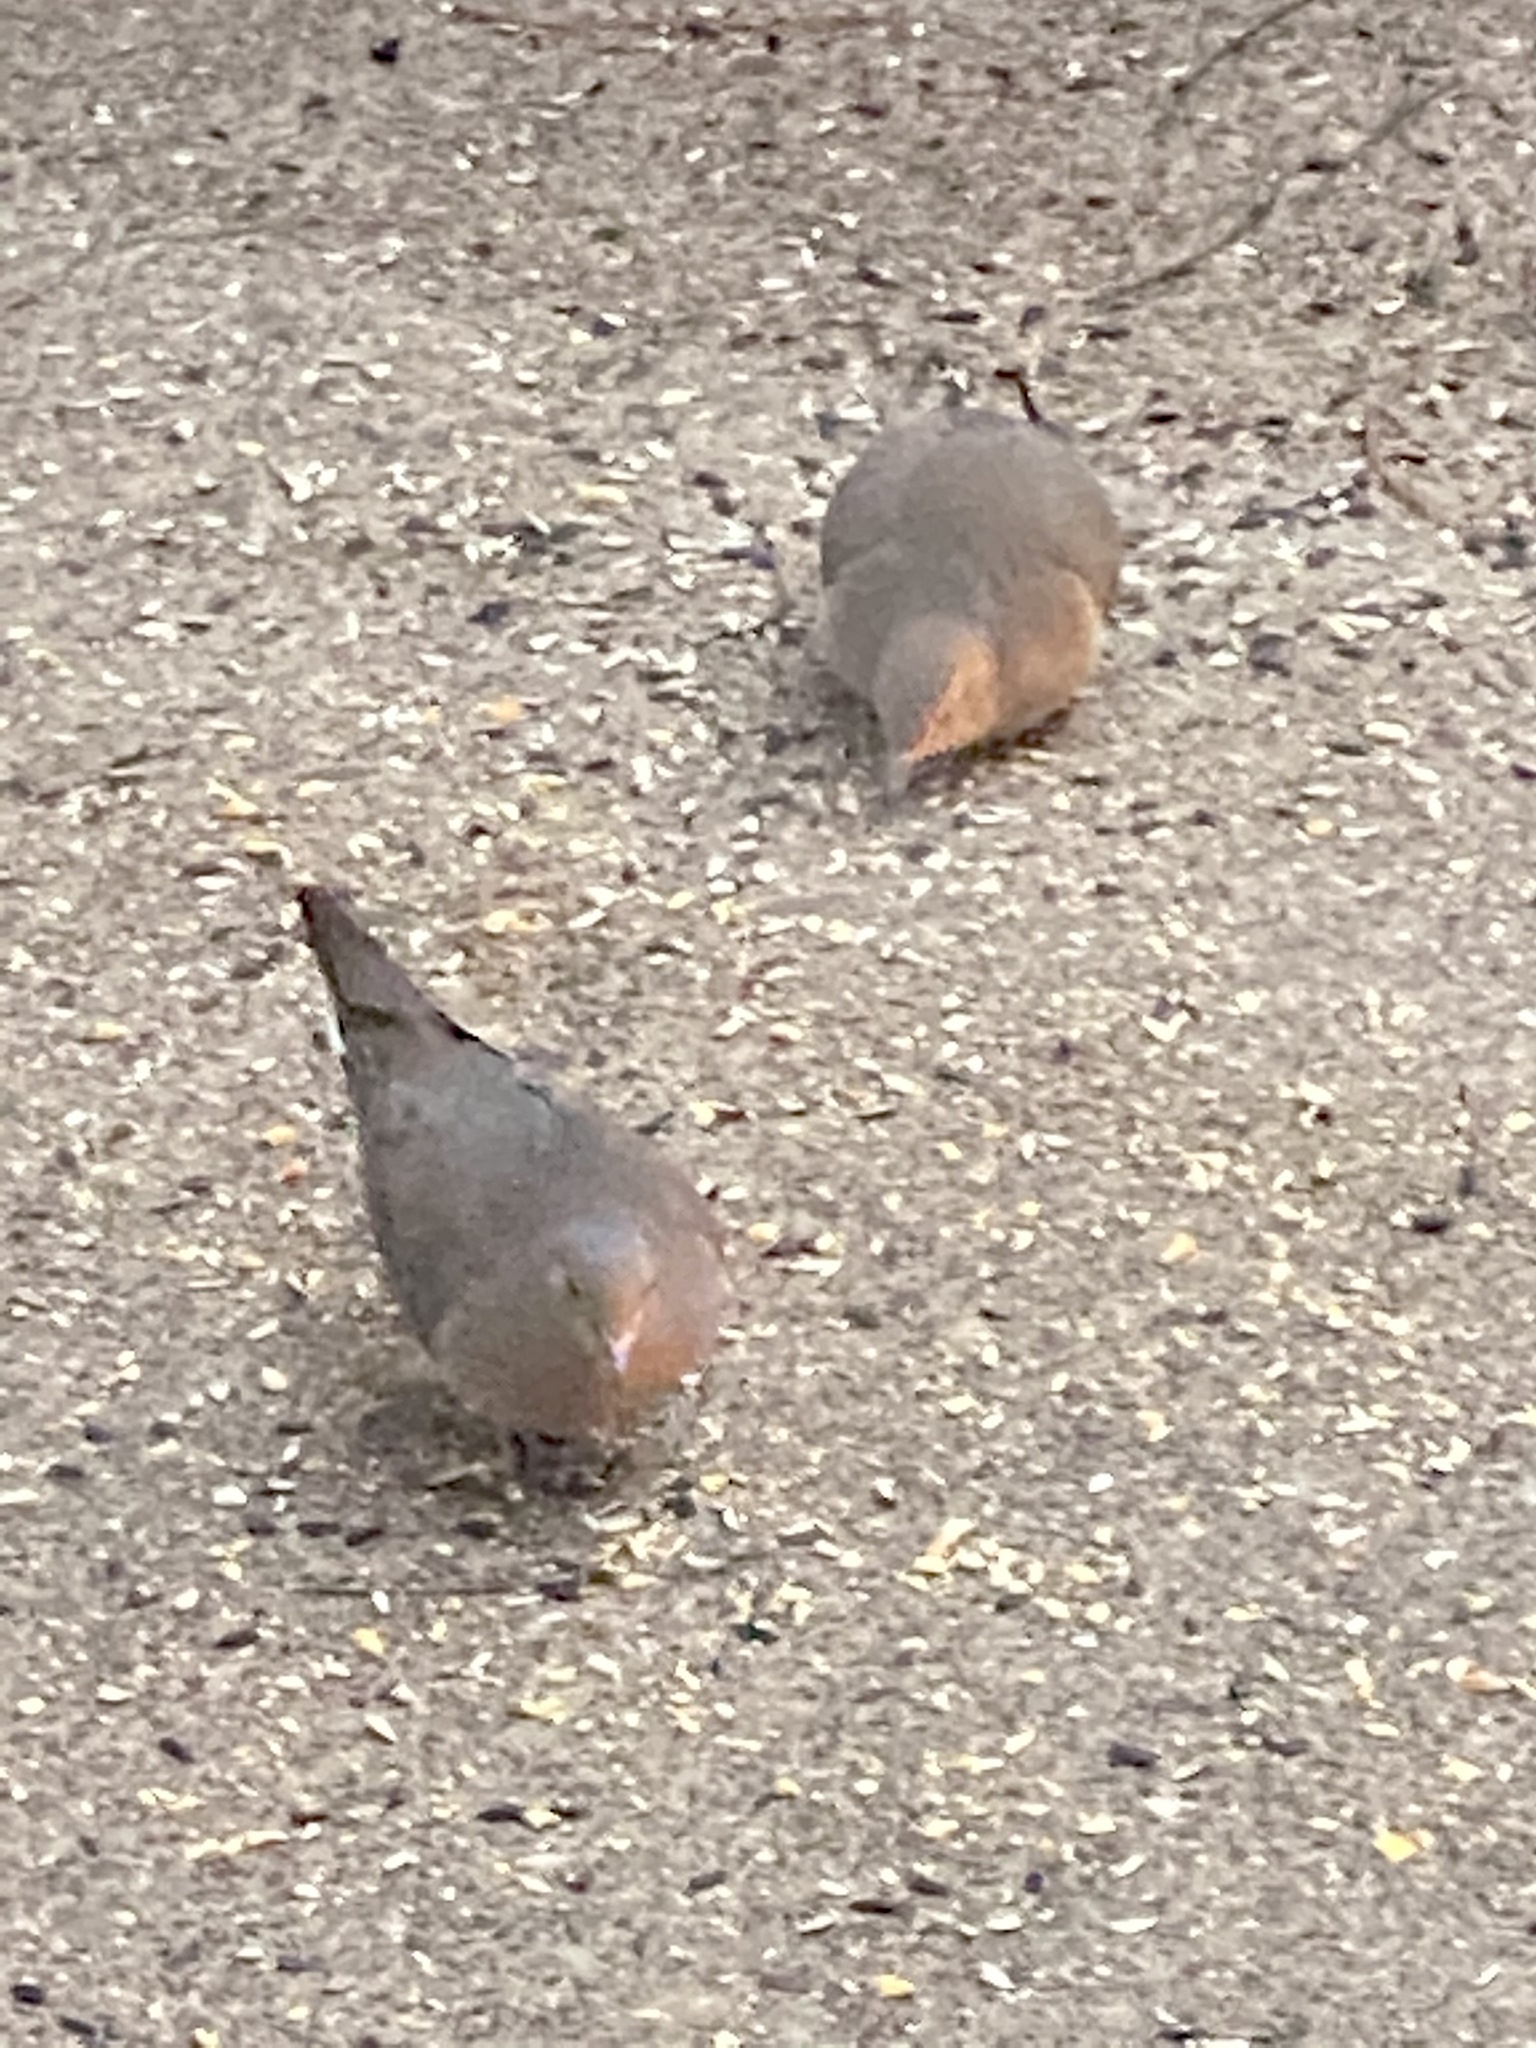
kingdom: Animalia
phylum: Chordata
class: Aves
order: Columbiformes
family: Columbidae
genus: Zenaida
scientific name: Zenaida macroura
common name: Mourning dove
